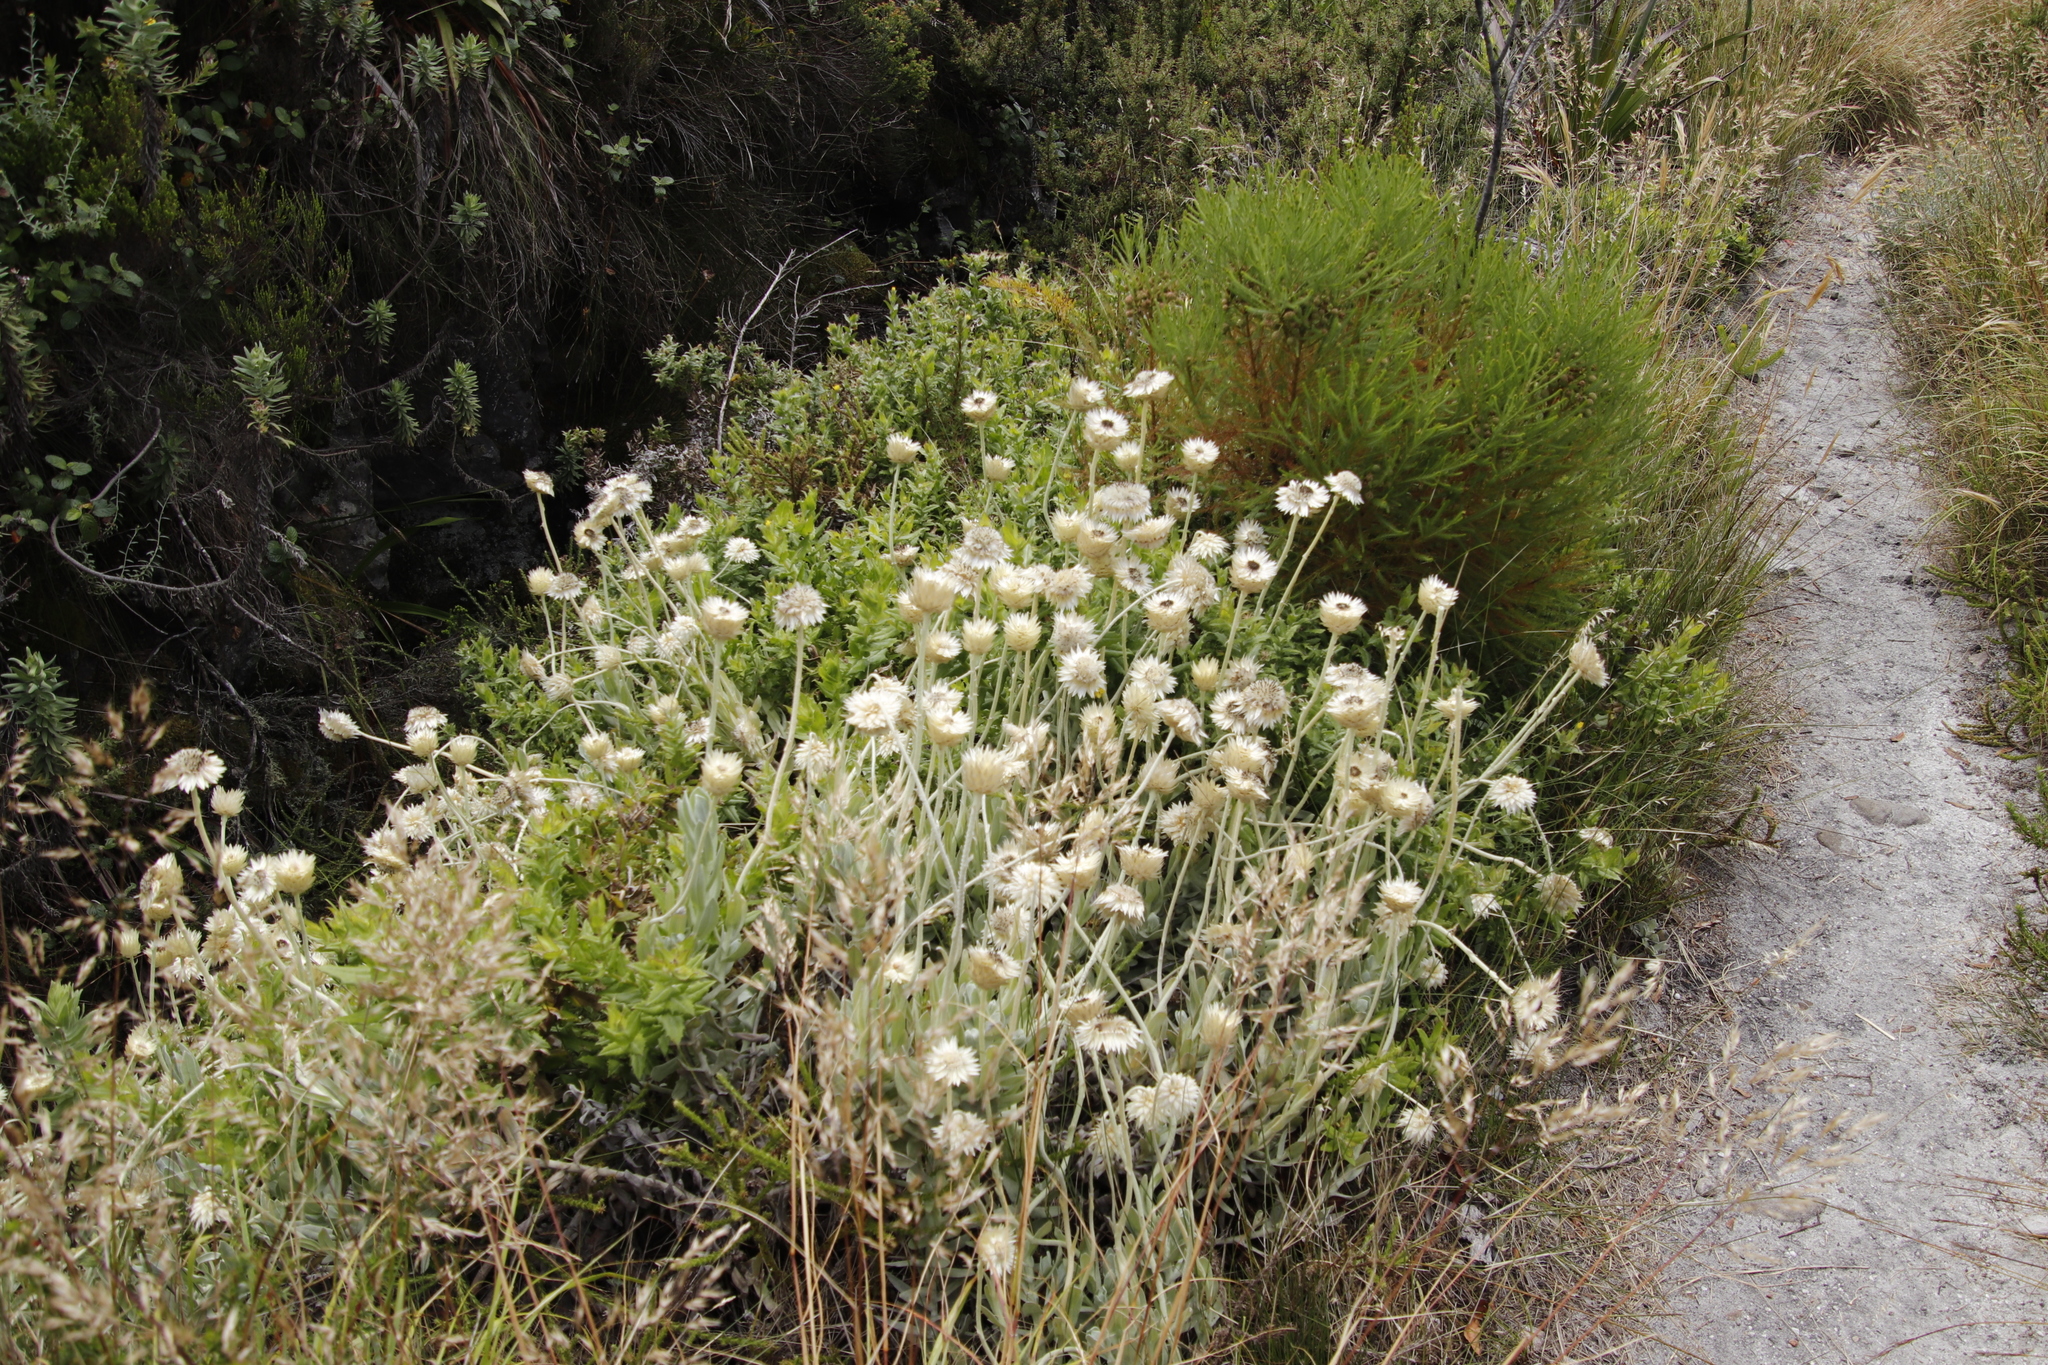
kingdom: Plantae
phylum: Tracheophyta
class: Magnoliopsida
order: Asterales
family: Asteraceae
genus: Syncarpha
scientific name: Syncarpha speciosissima
